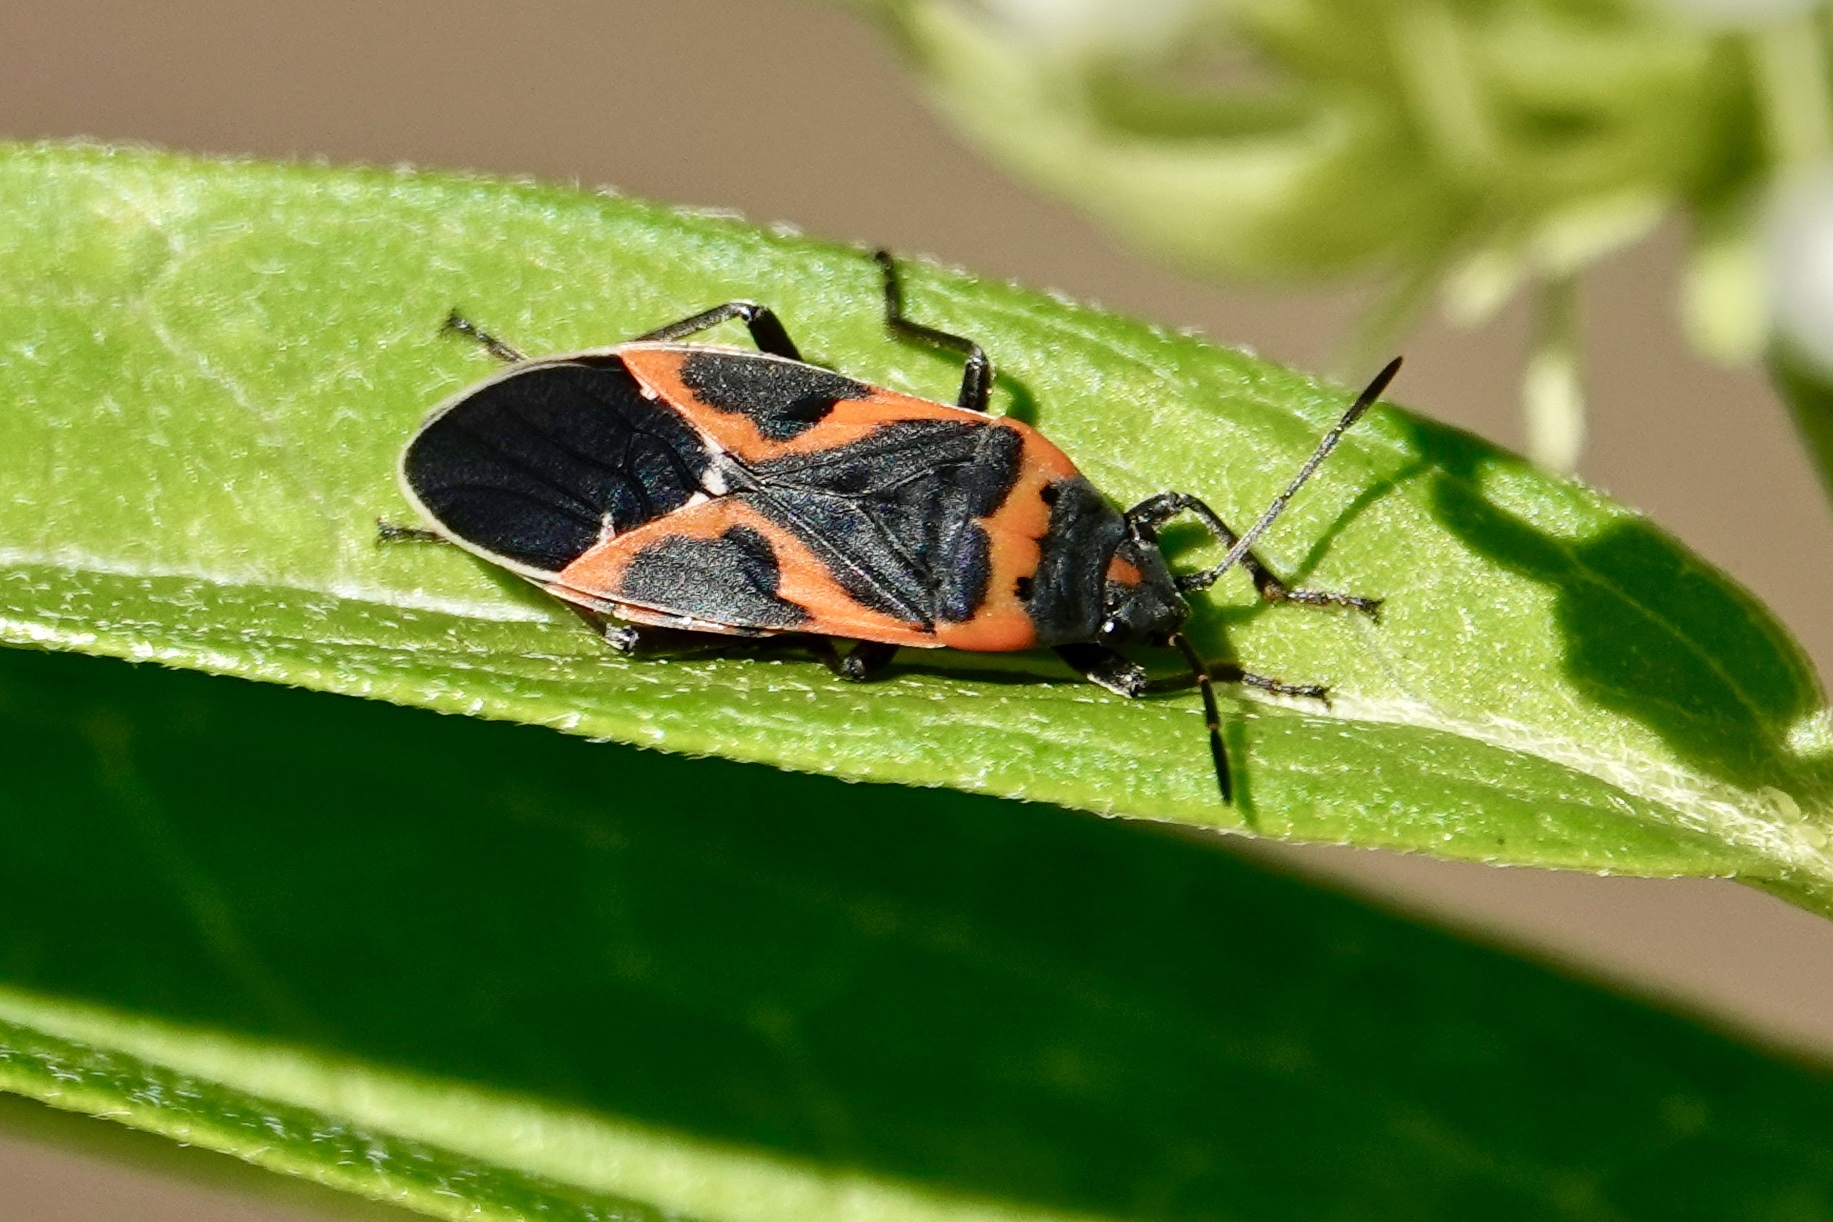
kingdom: Animalia
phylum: Arthropoda
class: Insecta
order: Hemiptera
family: Lygaeidae
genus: Lygaeus
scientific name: Lygaeus kalmii
